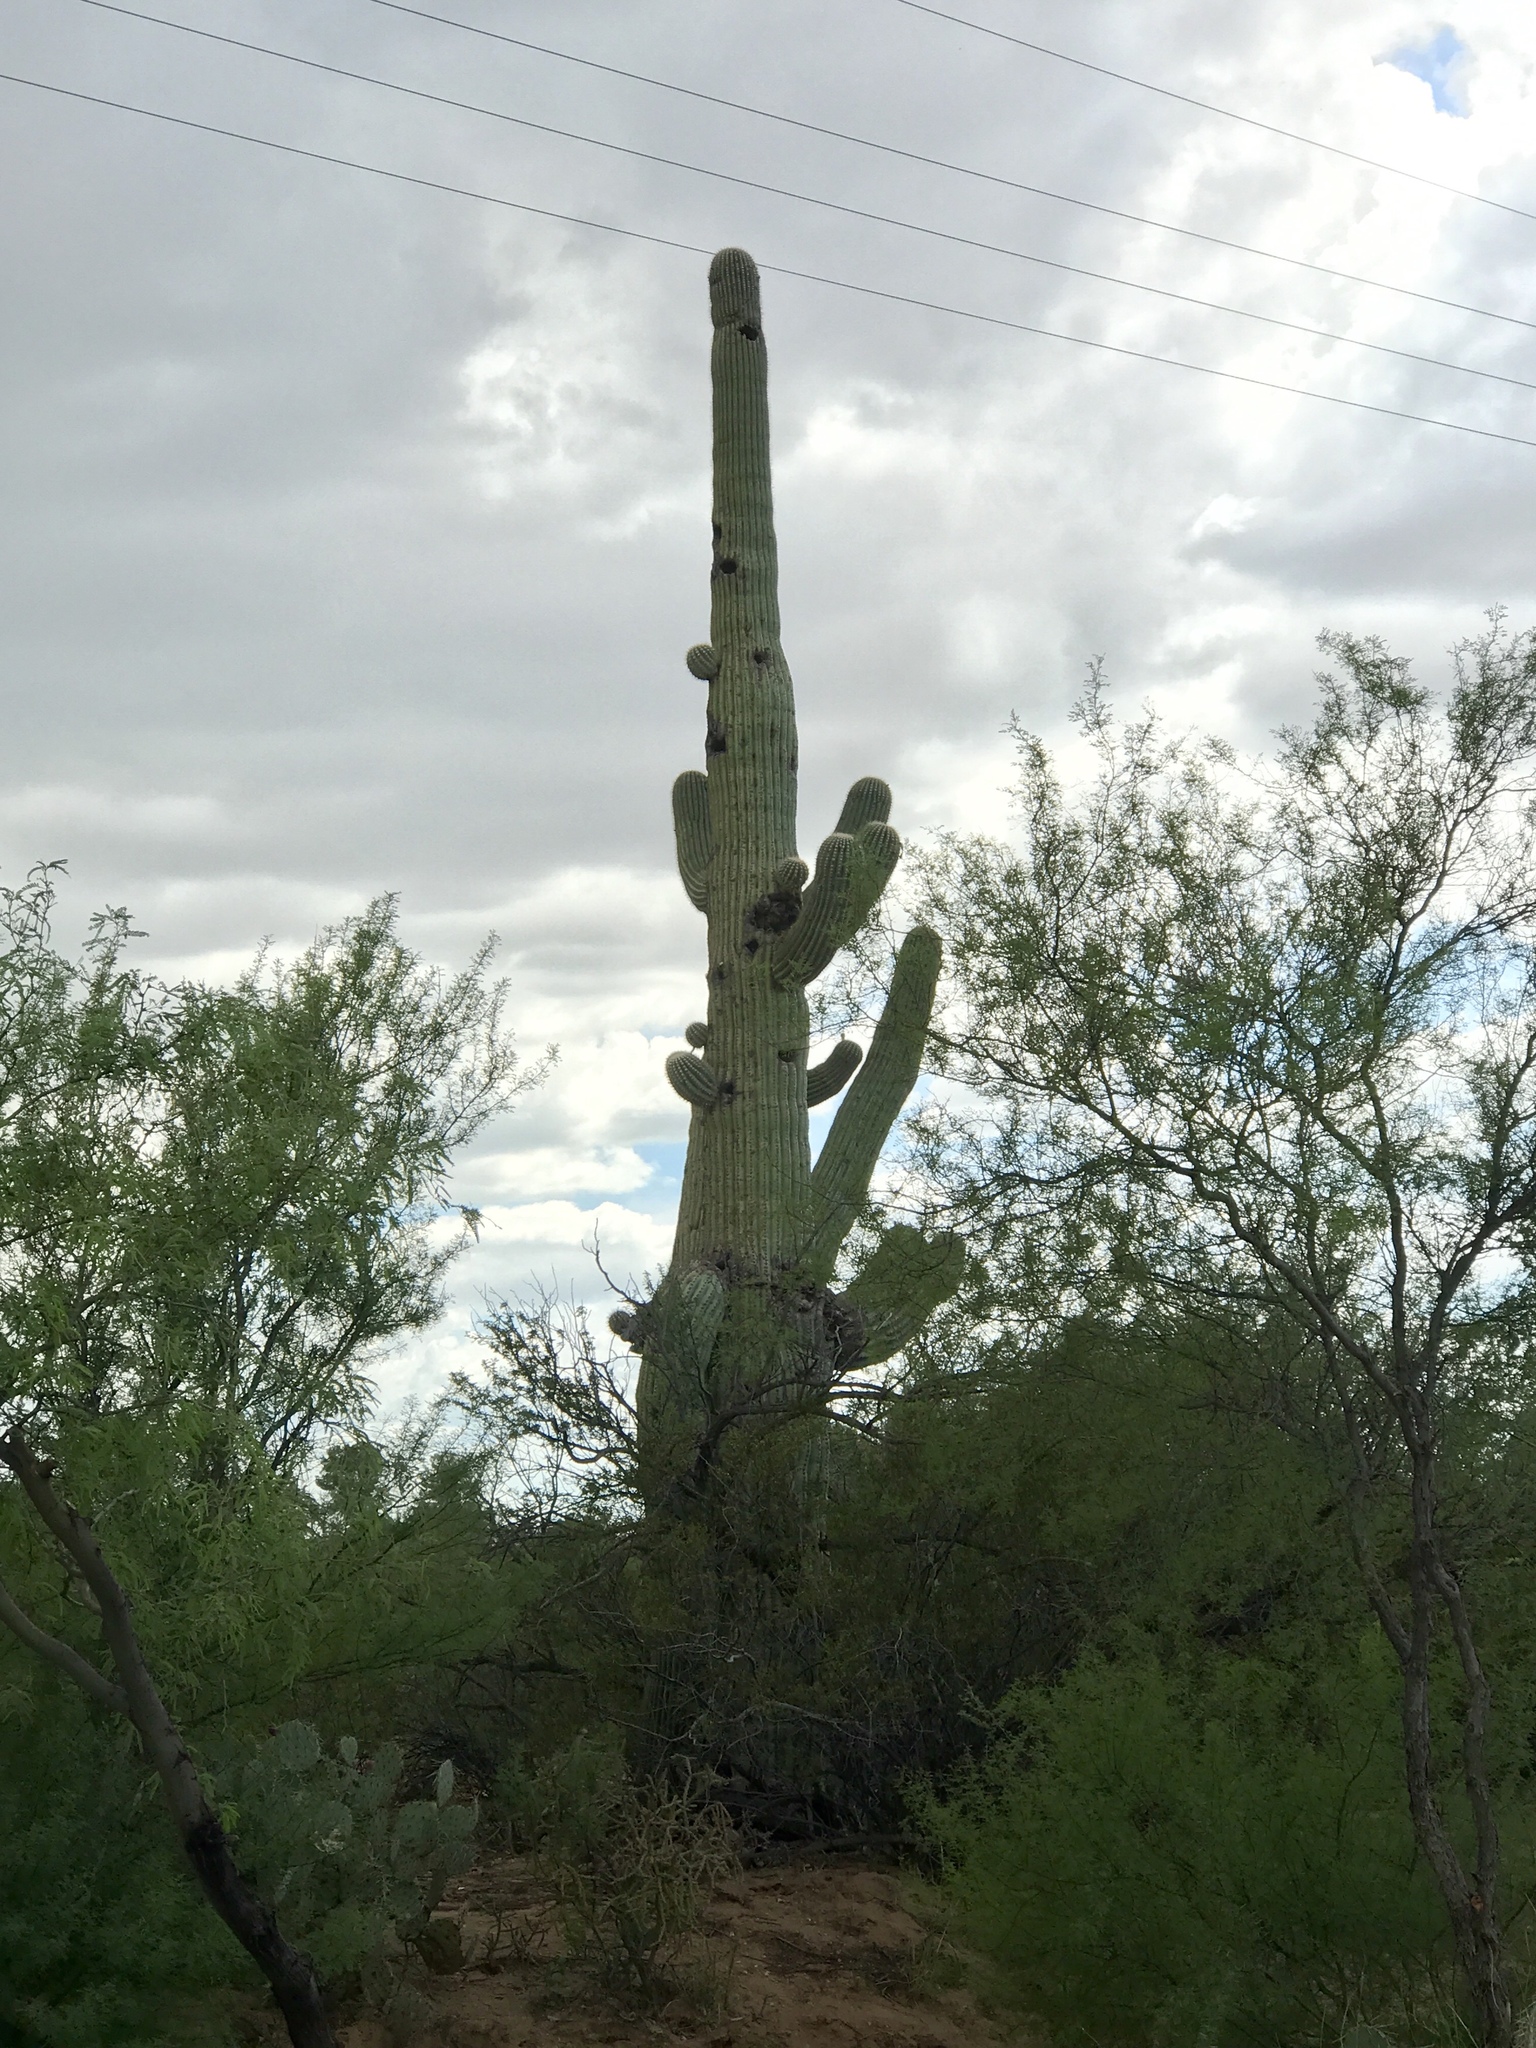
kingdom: Plantae
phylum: Tracheophyta
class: Magnoliopsida
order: Caryophyllales
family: Cactaceae
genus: Carnegiea
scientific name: Carnegiea gigantea
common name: Saguaro
